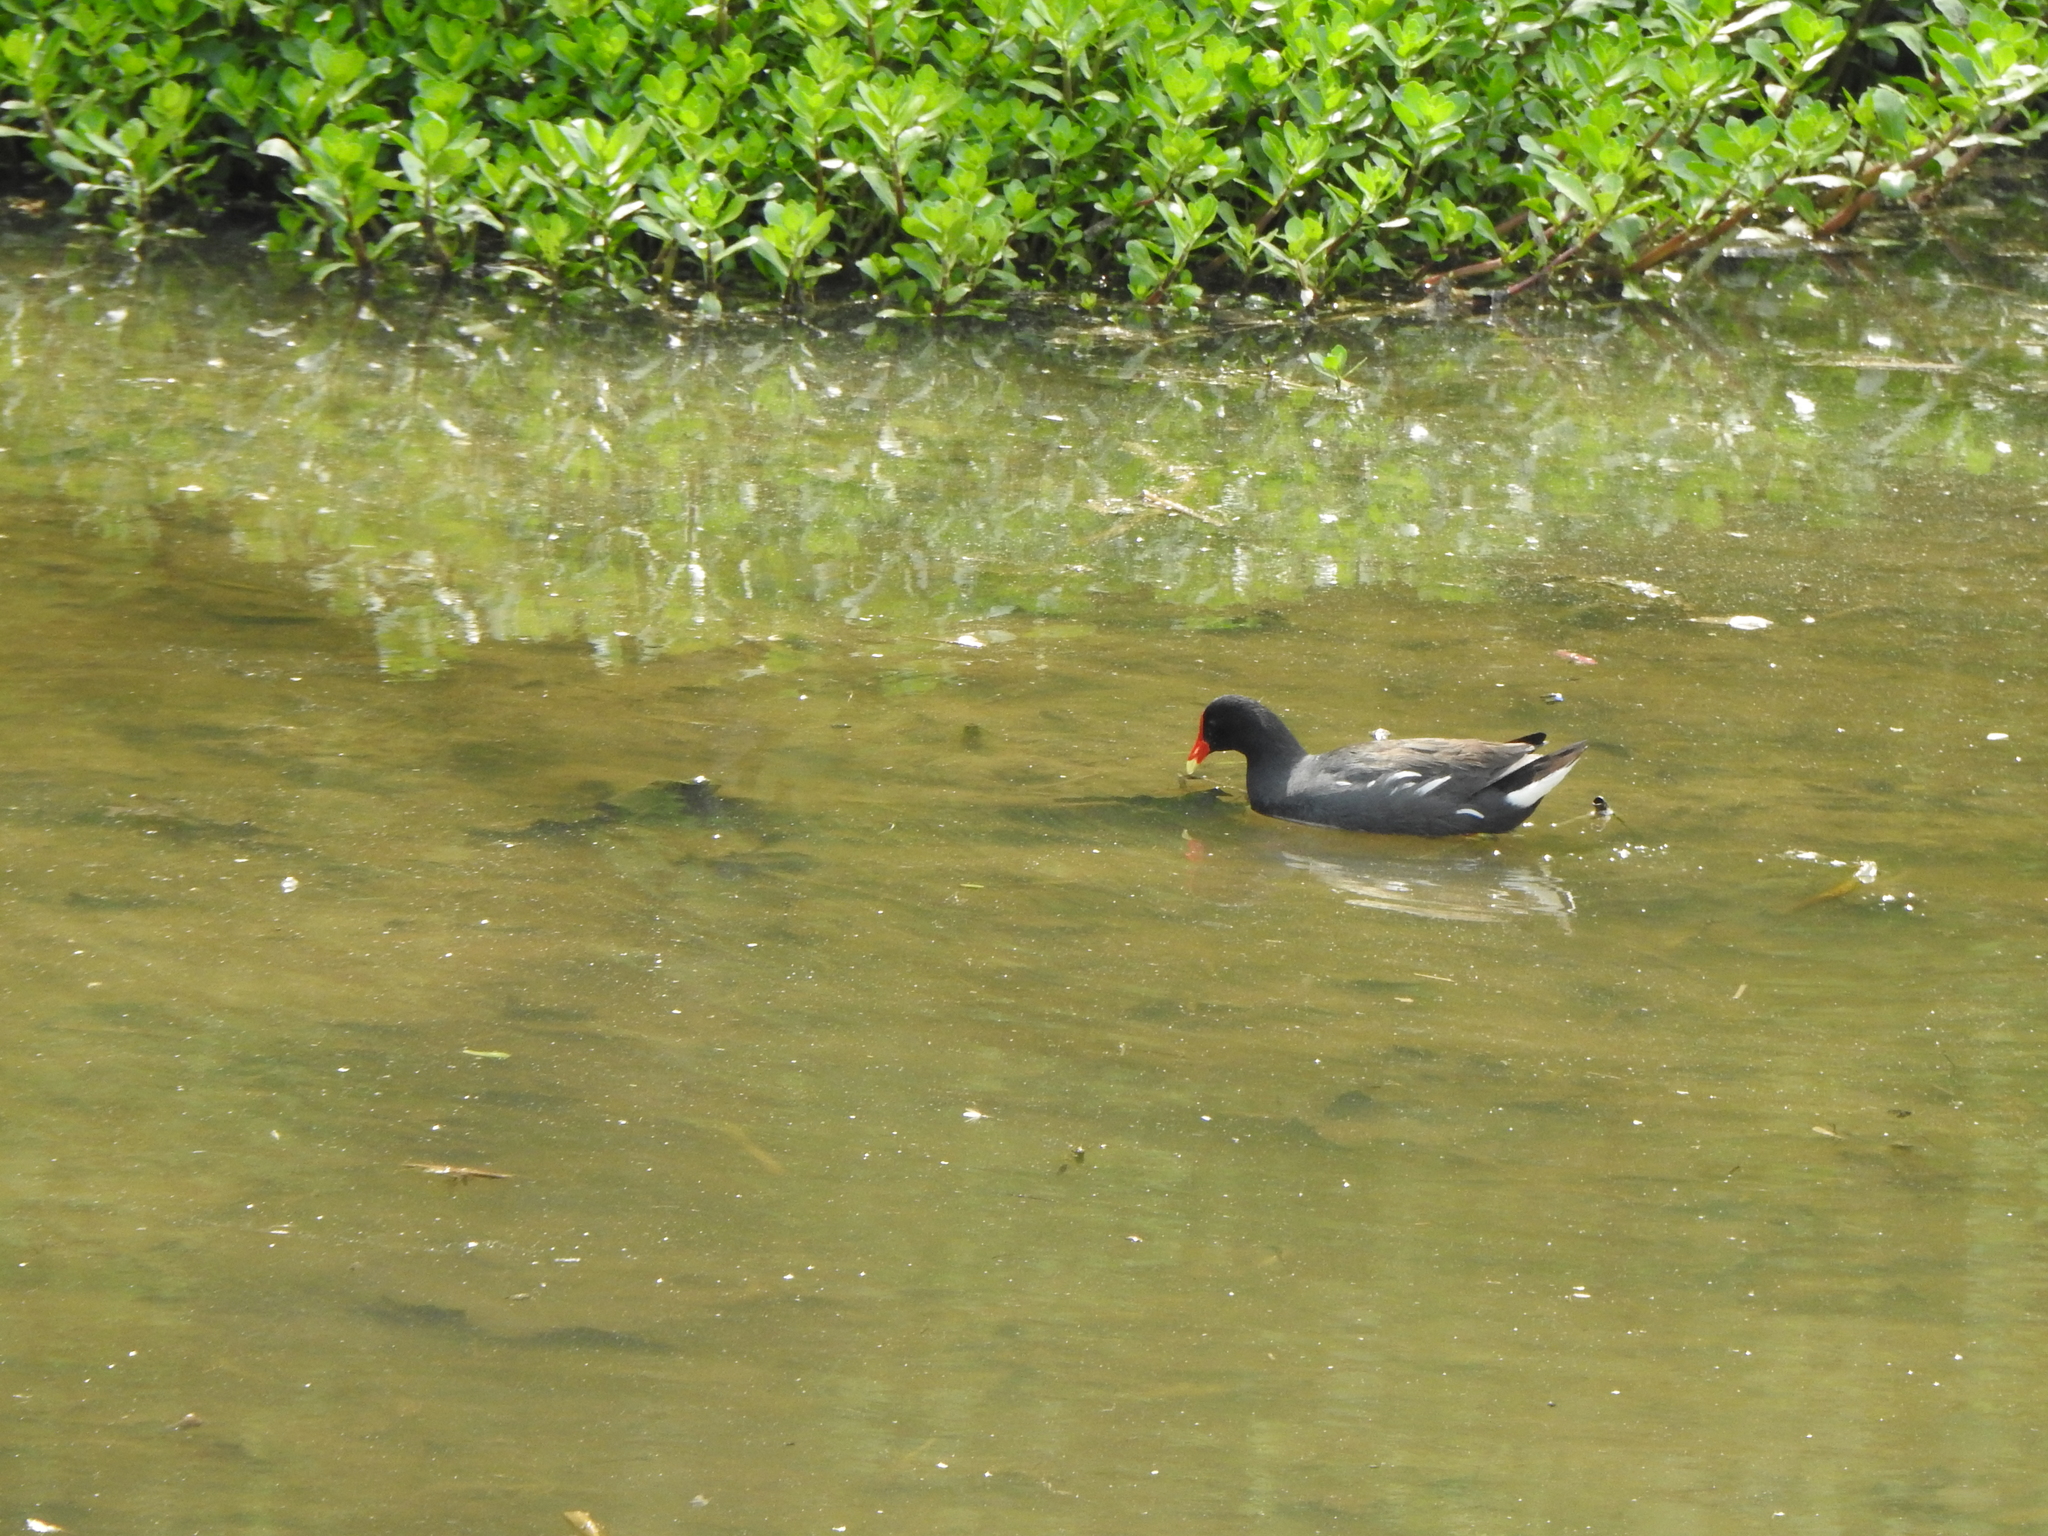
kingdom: Animalia
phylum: Chordata
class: Aves
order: Gruiformes
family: Rallidae
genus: Gallinula
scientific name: Gallinula chloropus
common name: Common moorhen
